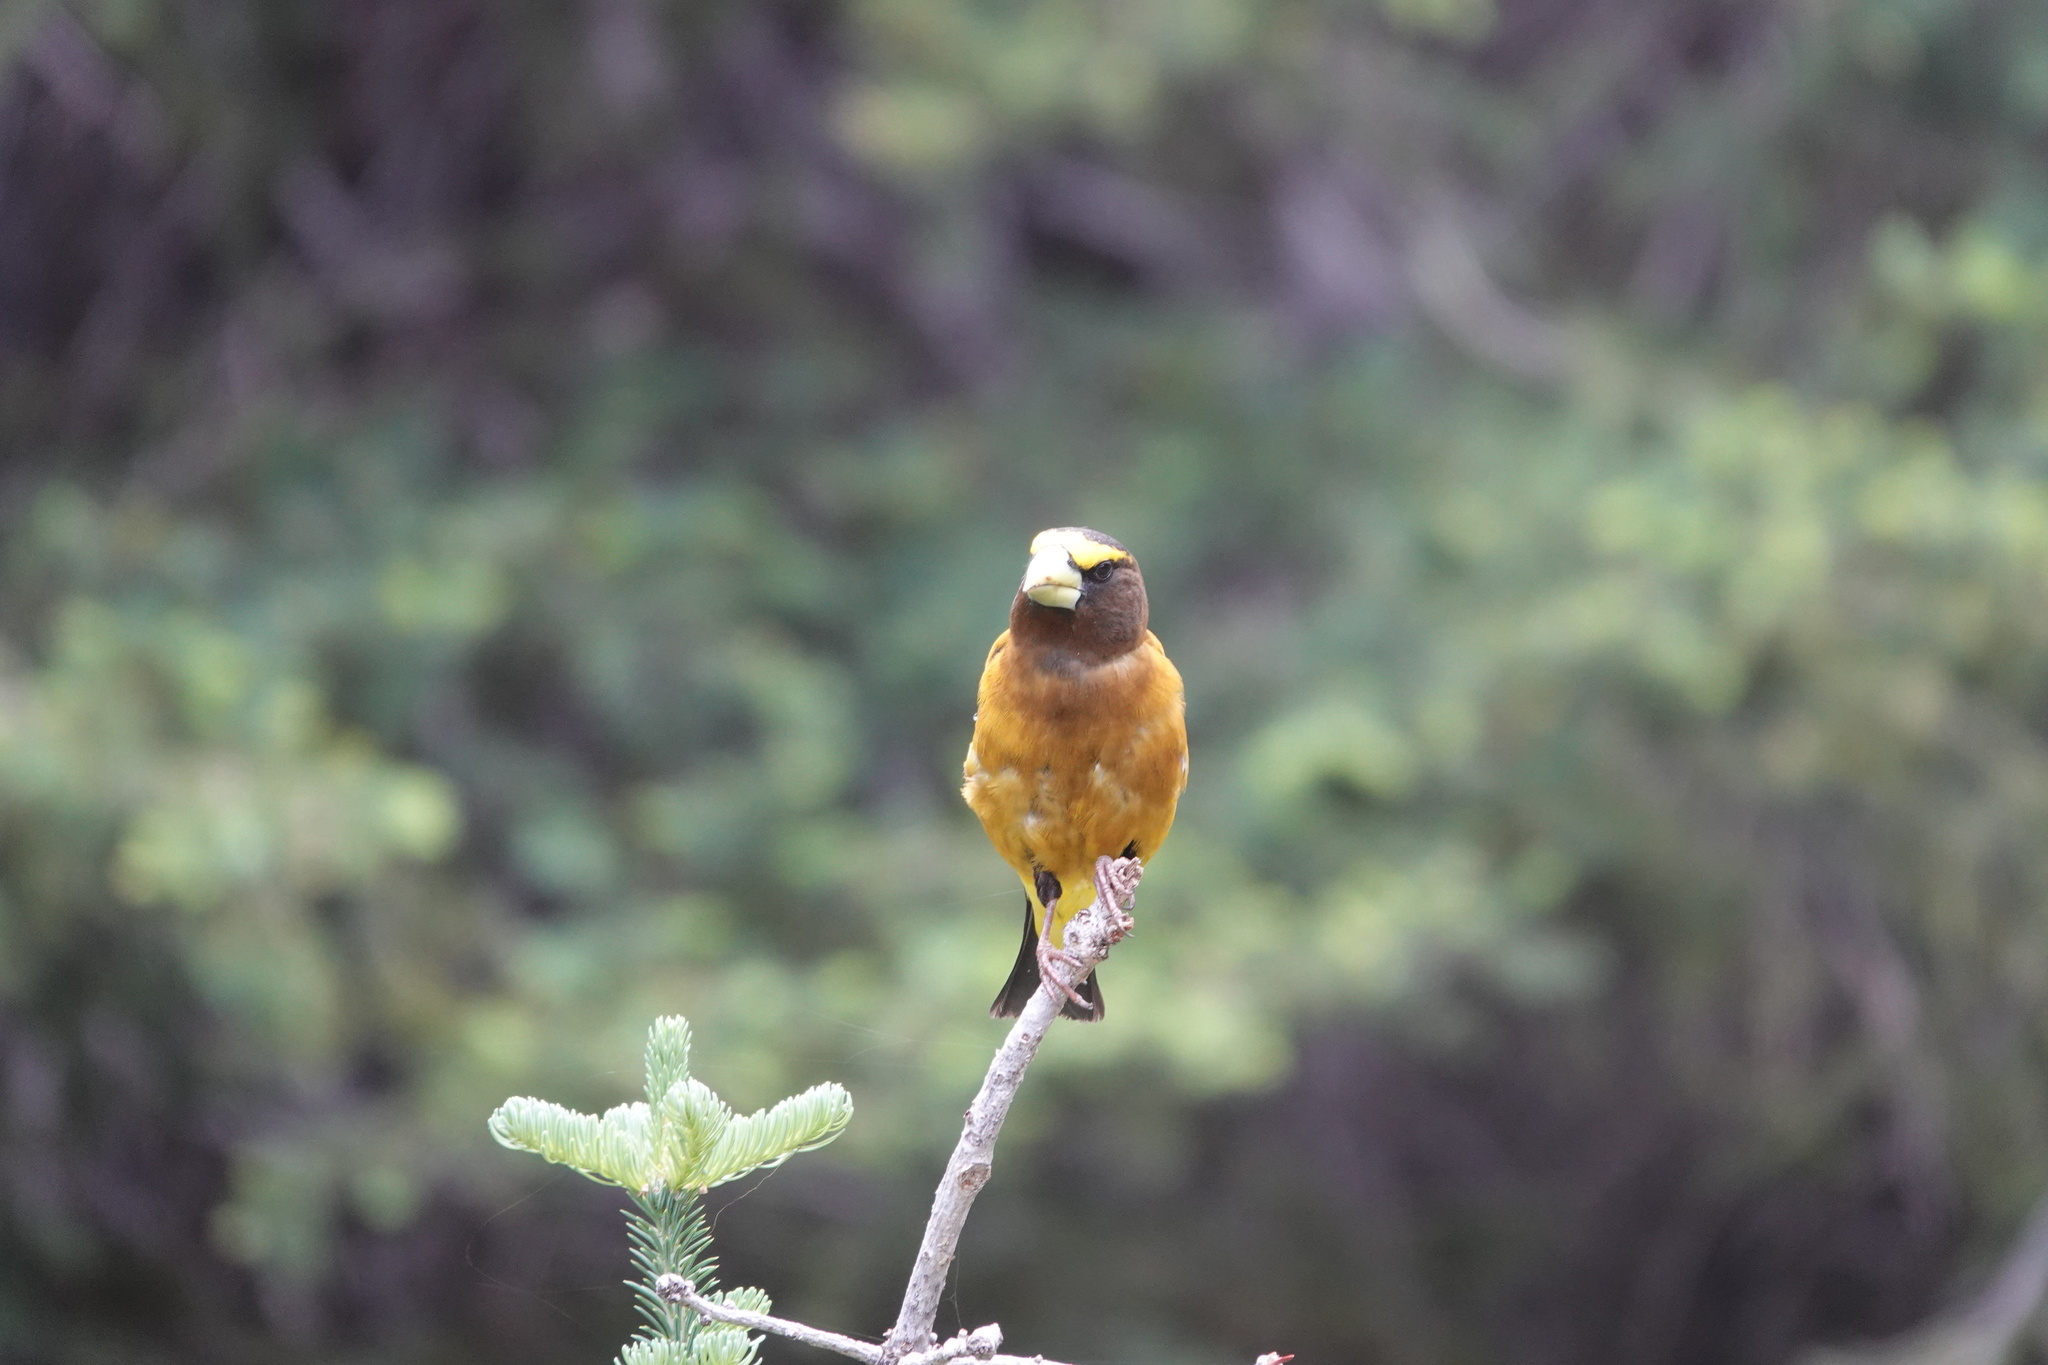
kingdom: Animalia
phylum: Chordata
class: Aves
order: Passeriformes
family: Fringillidae
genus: Hesperiphona
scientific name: Hesperiphona vespertina
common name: Evening grosbeak
